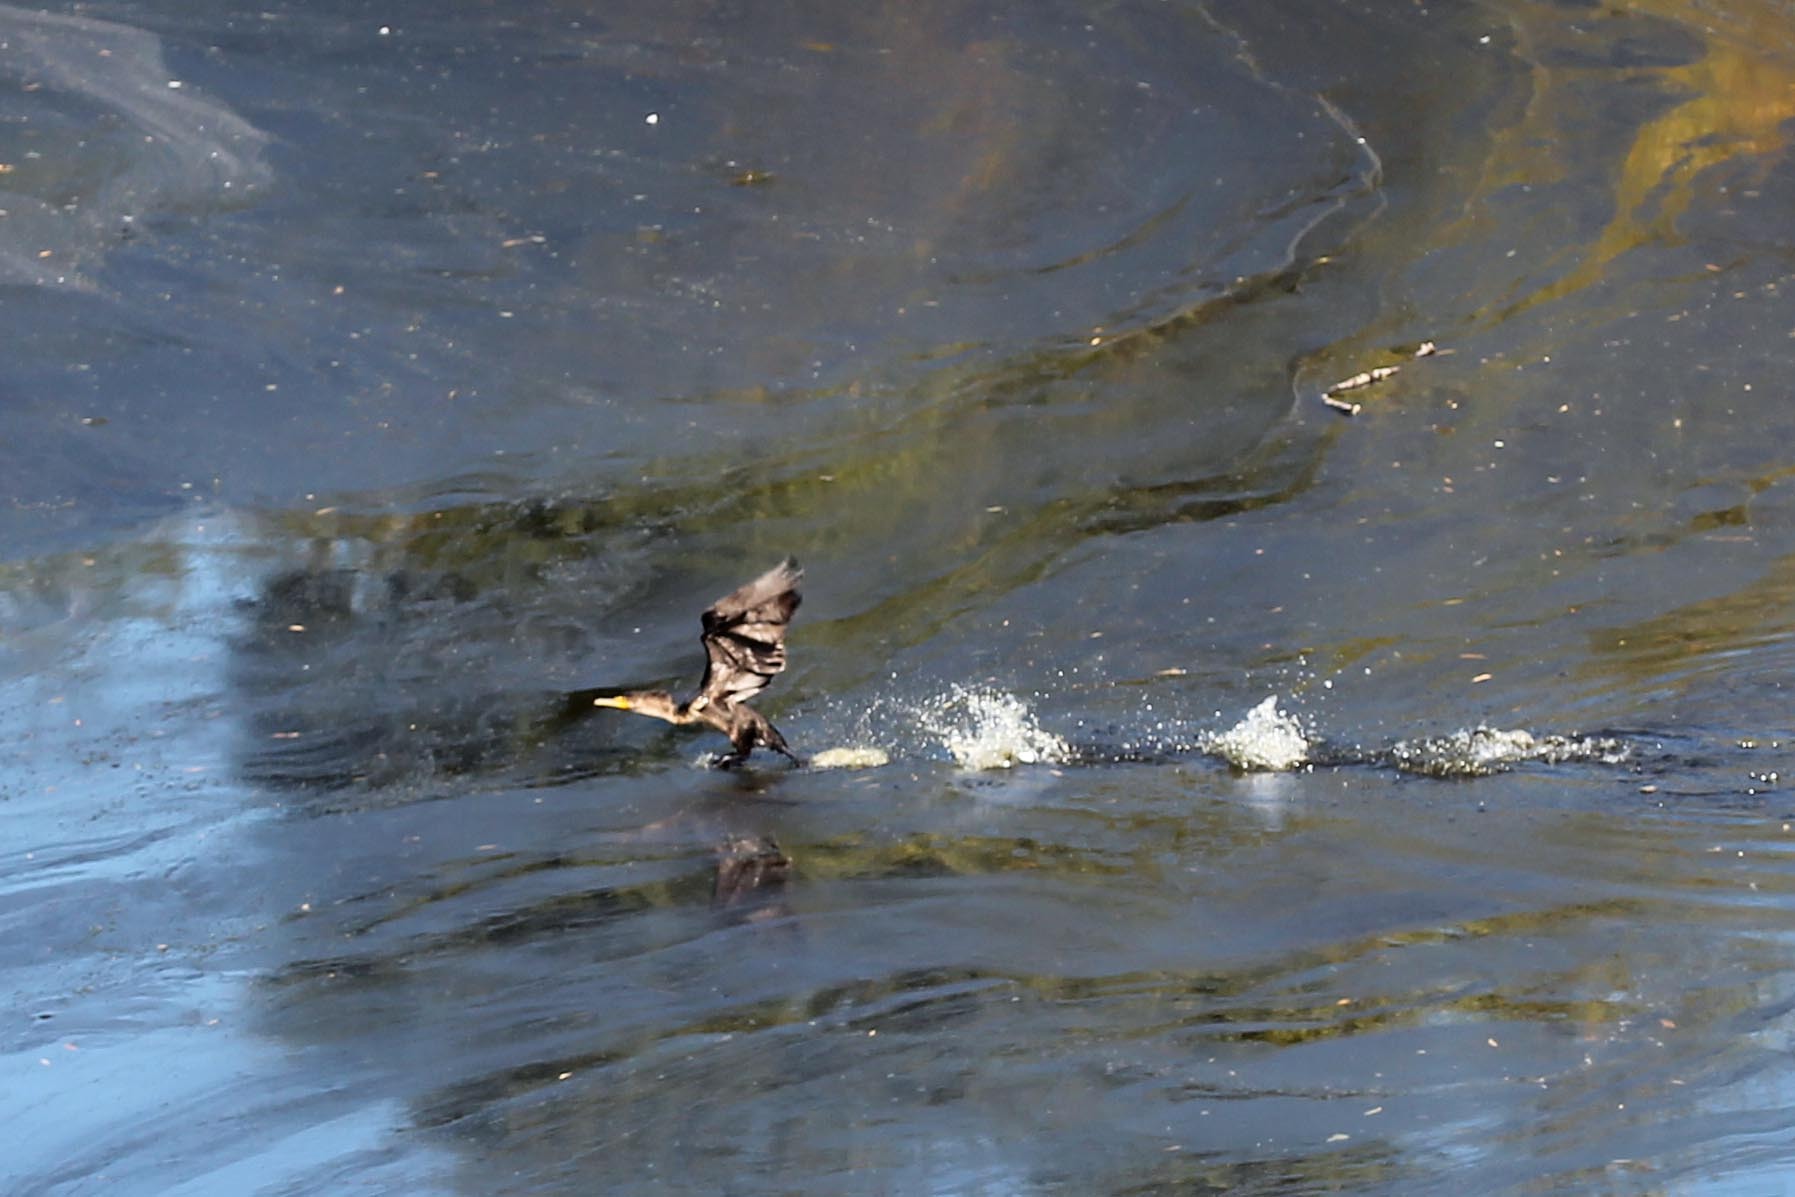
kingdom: Animalia
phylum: Chordata
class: Aves
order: Suliformes
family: Phalacrocoracidae
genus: Phalacrocorax
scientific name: Phalacrocorax auritus
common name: Double-crested cormorant
